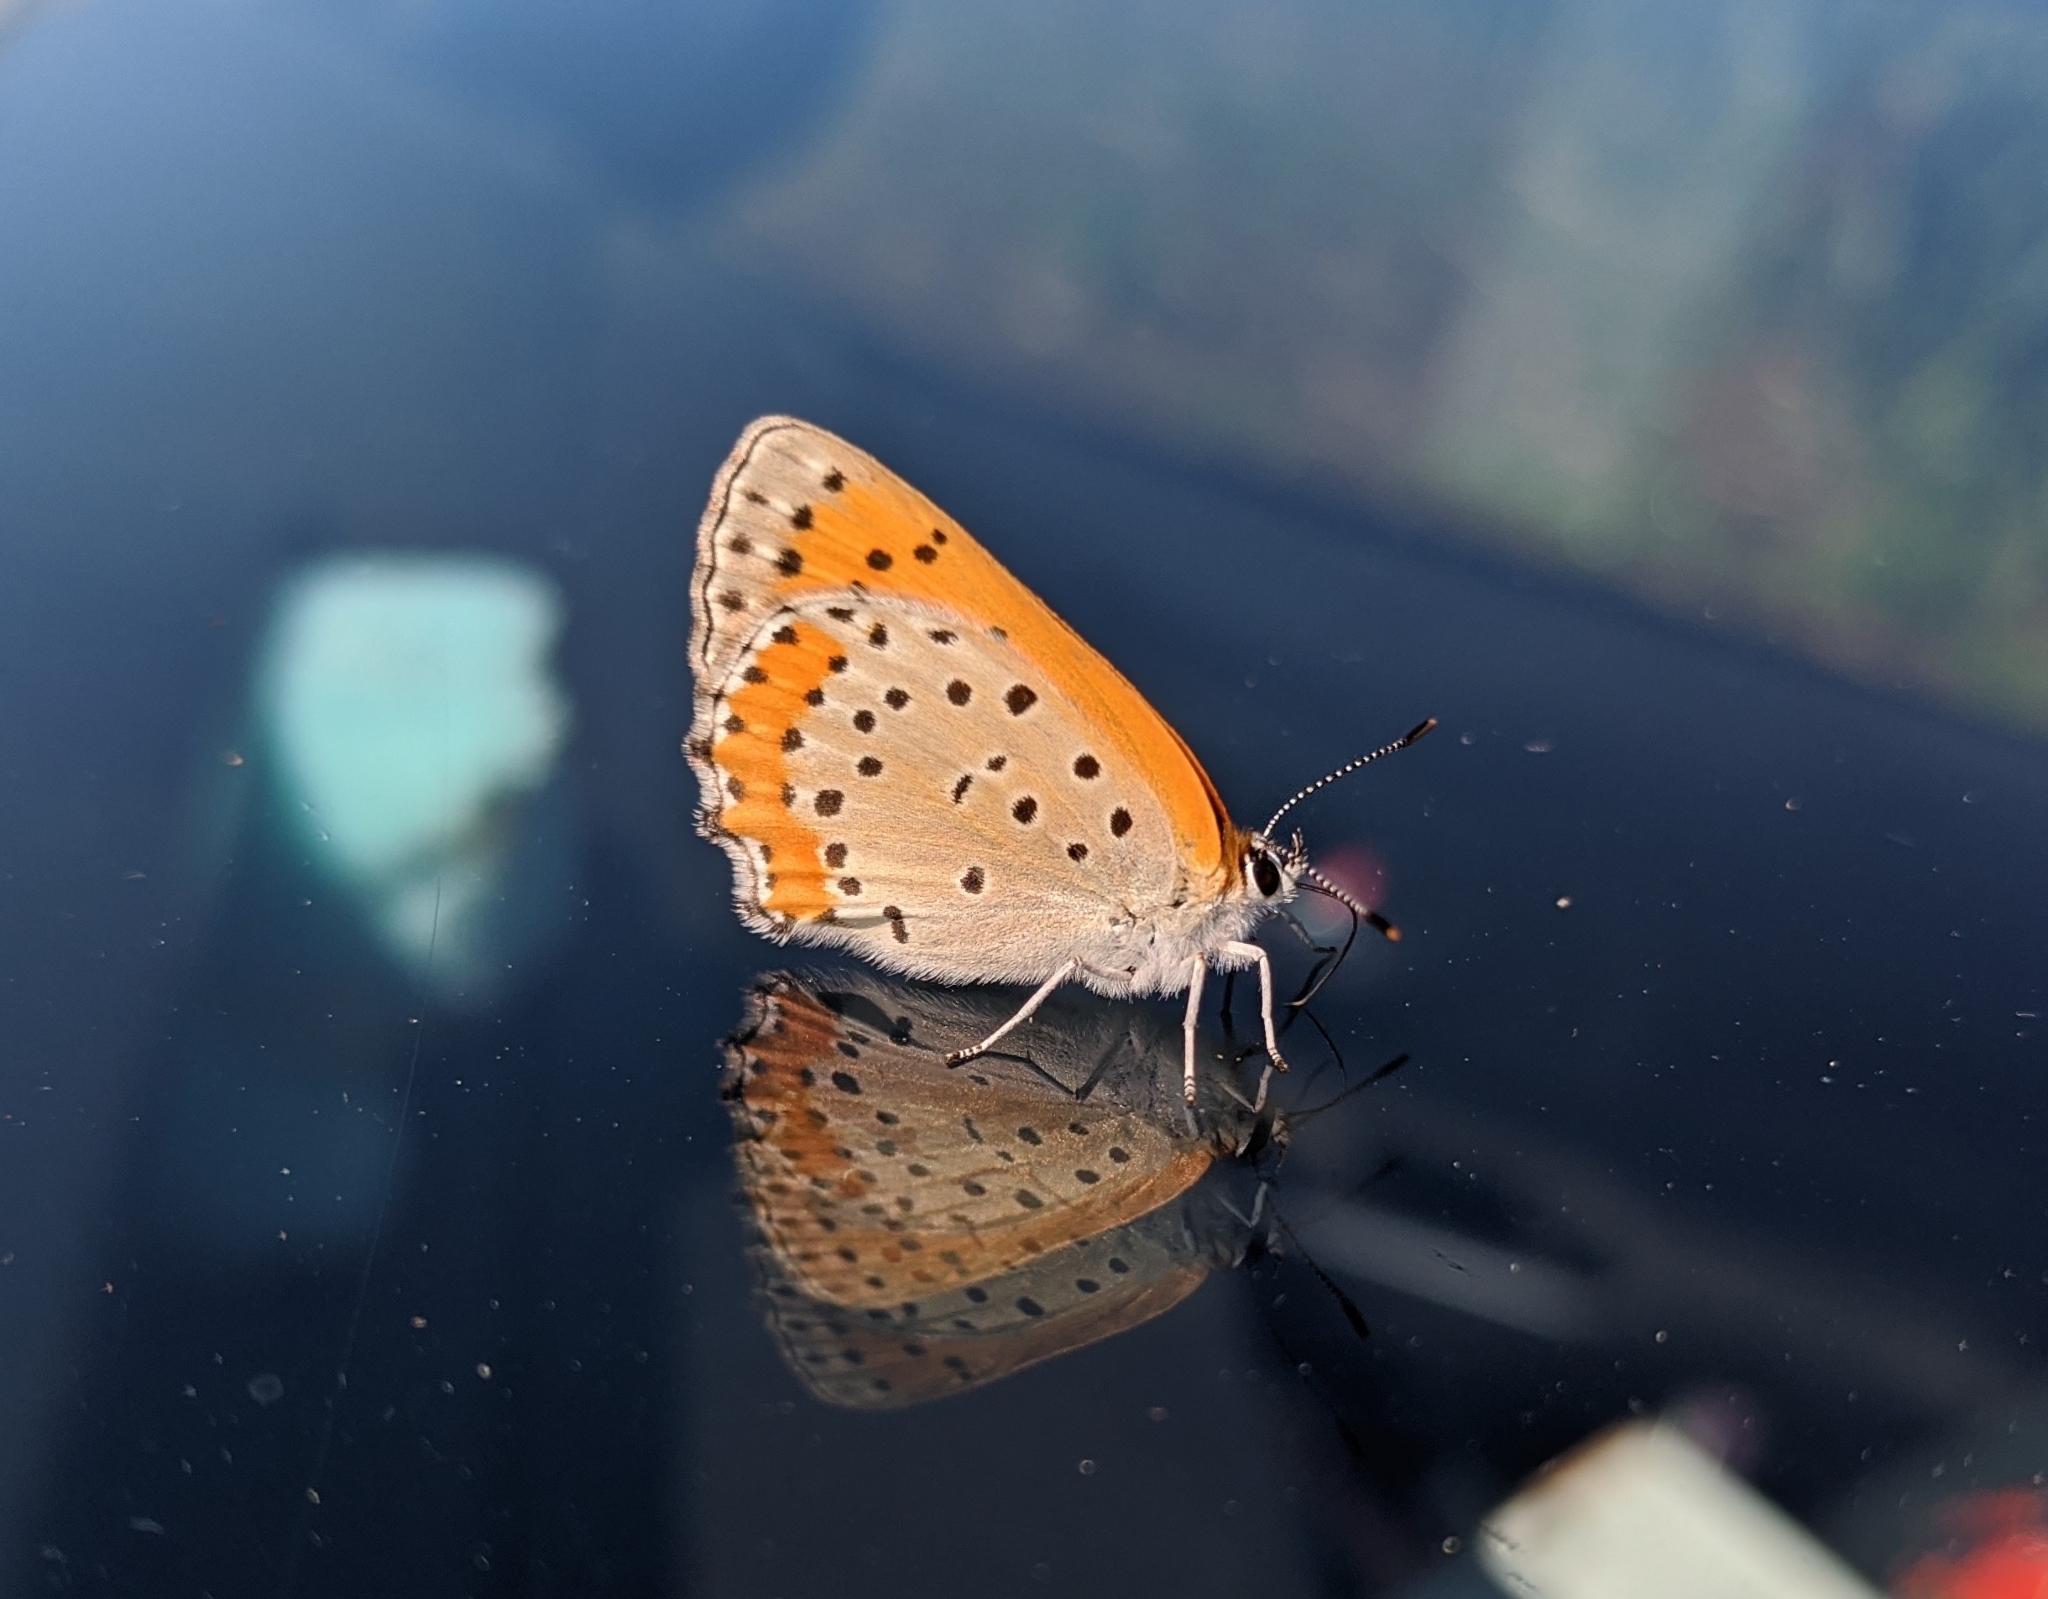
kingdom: Animalia
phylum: Arthropoda
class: Insecta
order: Lepidoptera
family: Lycaenidae
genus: Tharsalea
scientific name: Tharsalea hyllus
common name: Bronze copper
